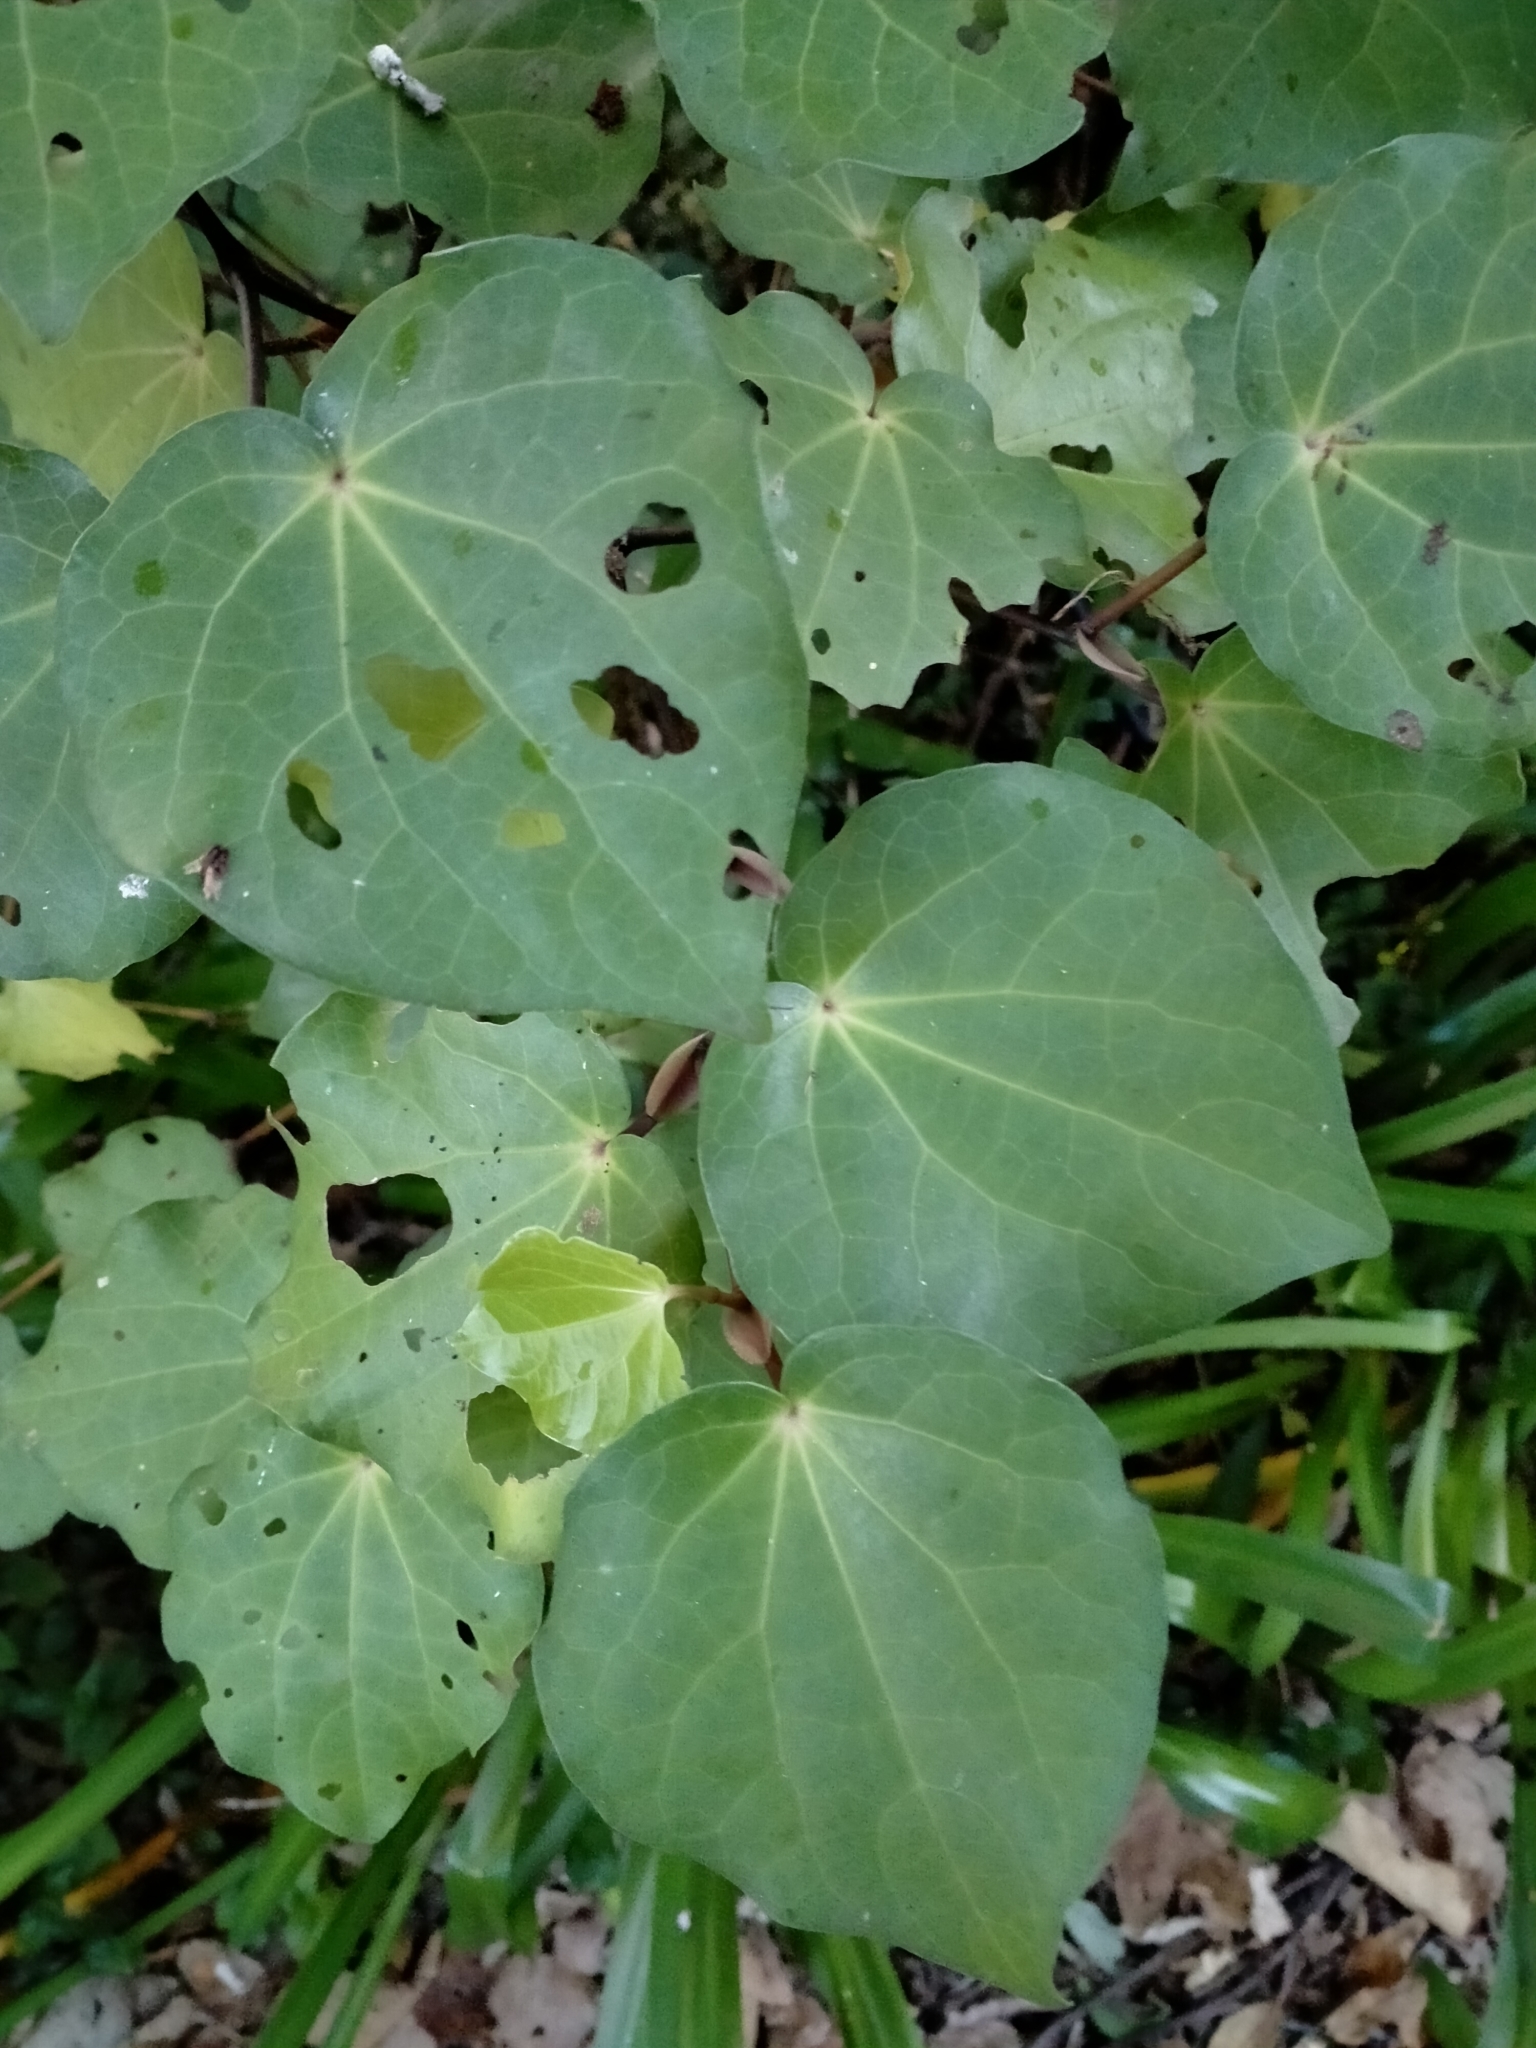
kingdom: Plantae
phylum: Tracheophyta
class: Magnoliopsida
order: Piperales
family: Piperaceae
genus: Macropiper
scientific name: Macropiper excelsum
